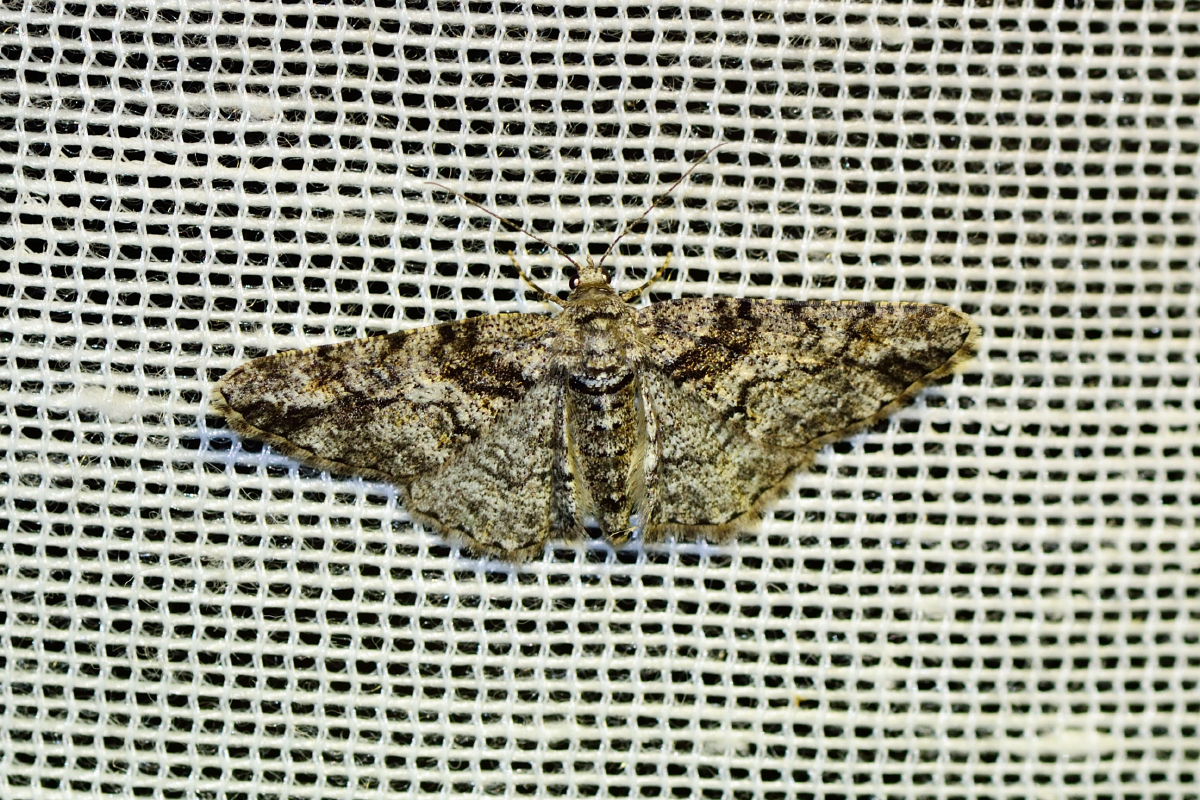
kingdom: Animalia
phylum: Arthropoda
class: Insecta
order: Lepidoptera
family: Geometridae
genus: Cleora
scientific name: Cleora cinctaria
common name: Ringed carpet
